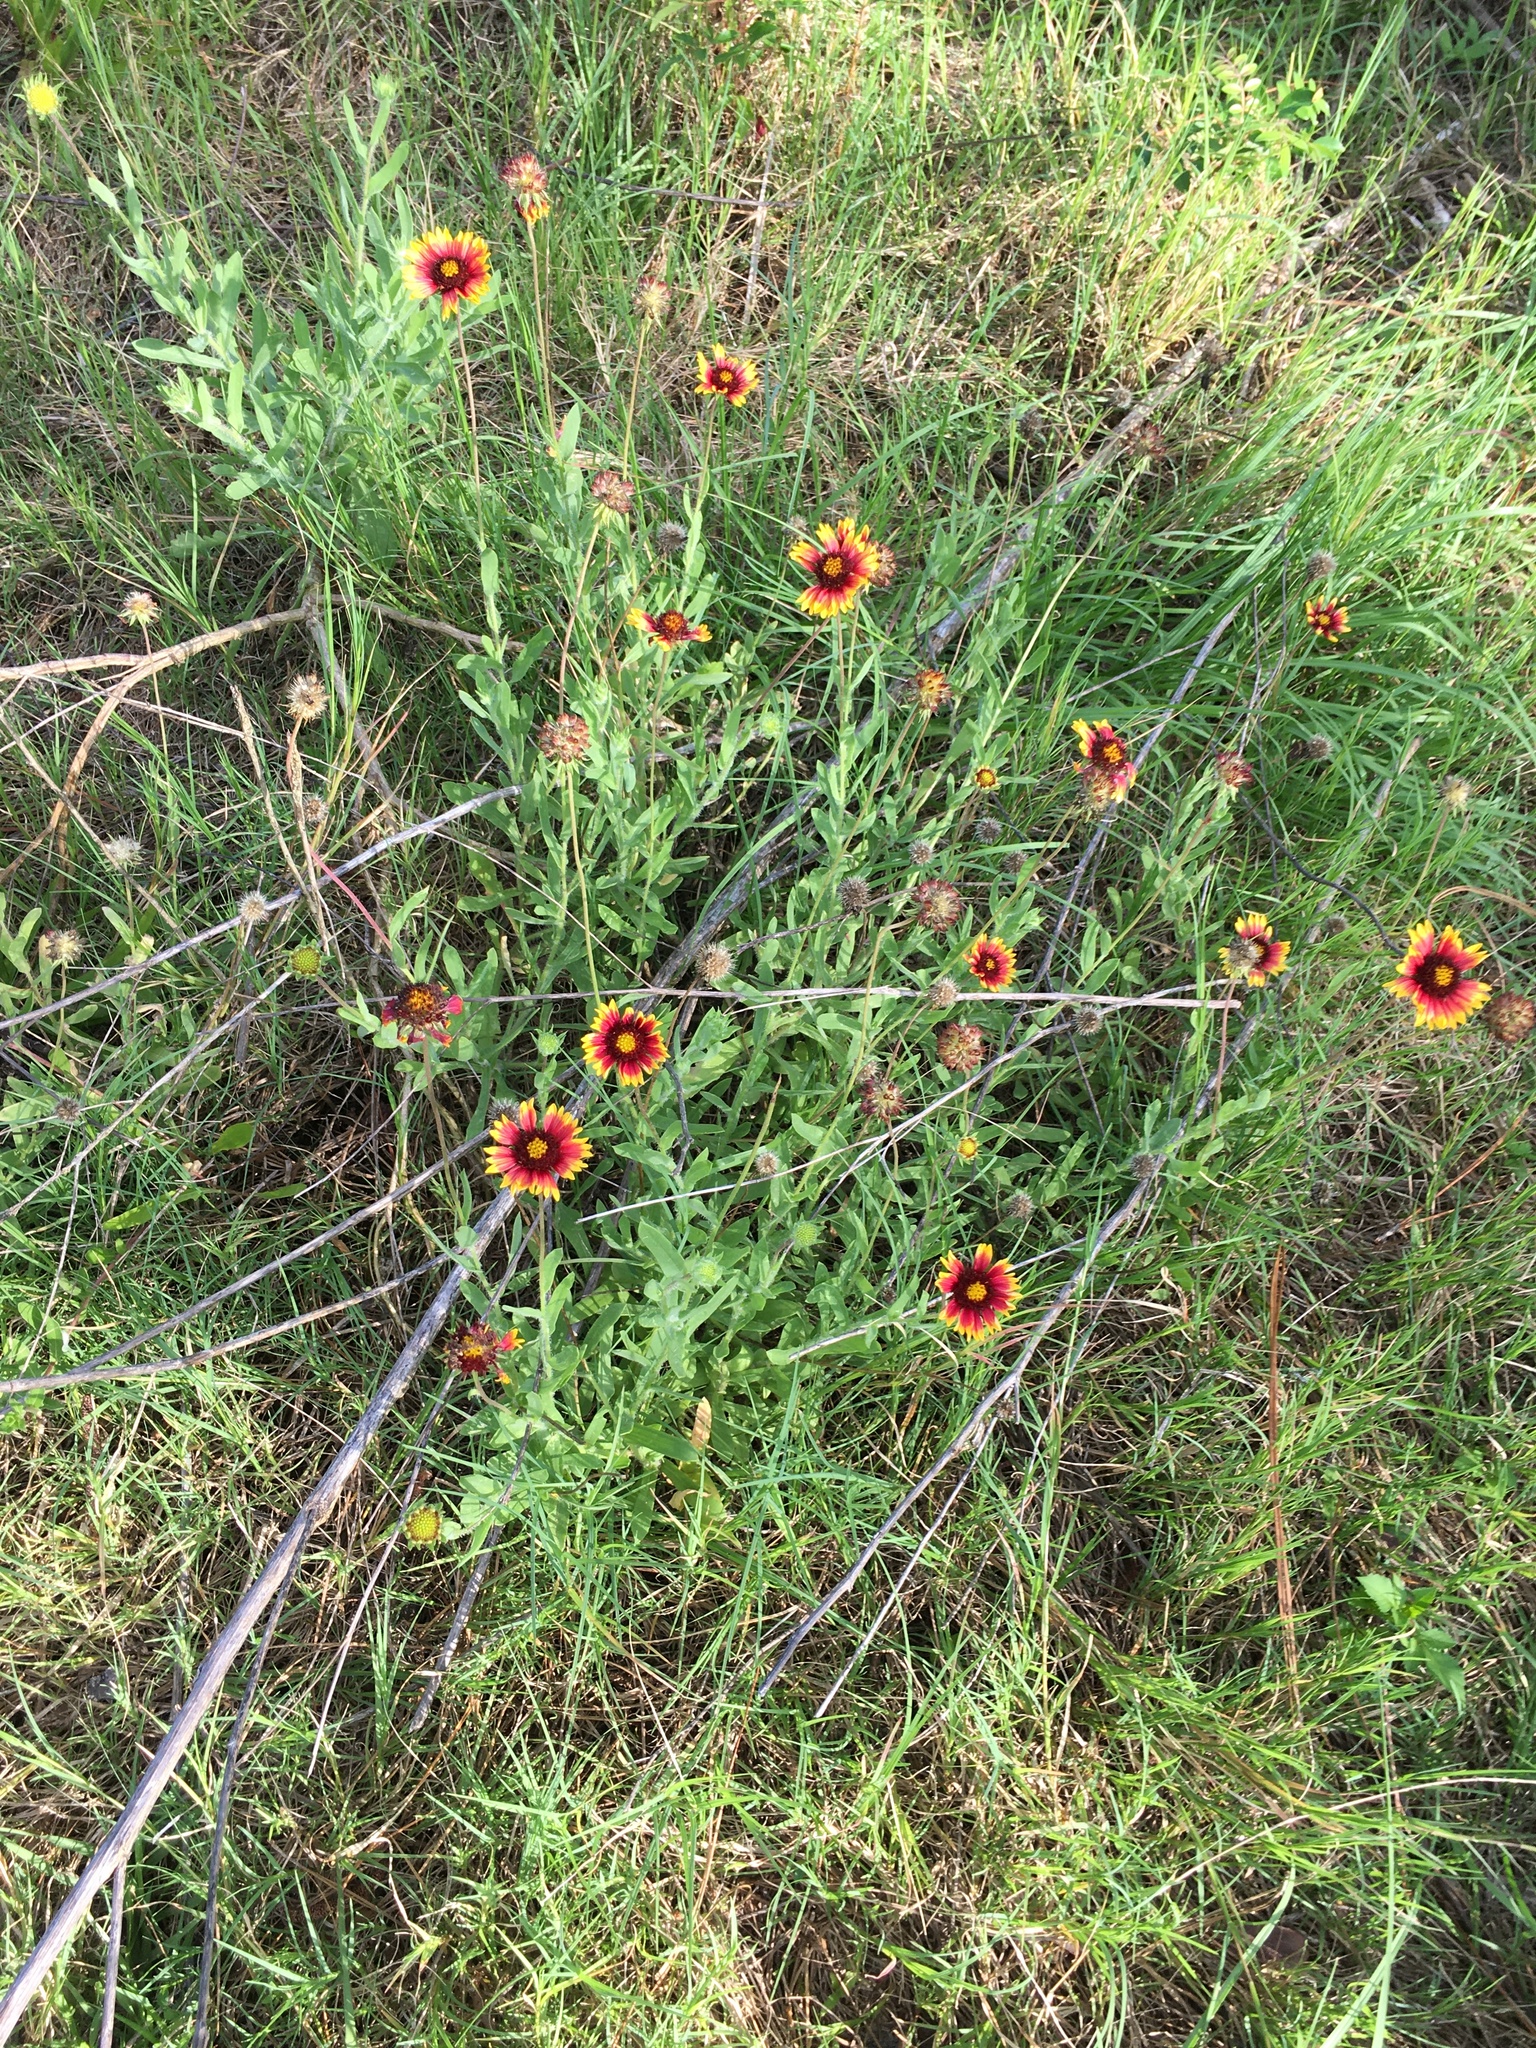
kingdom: Plantae
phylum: Tracheophyta
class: Magnoliopsida
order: Asterales
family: Asteraceae
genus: Gaillardia
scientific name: Gaillardia pulchella
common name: Firewheel
